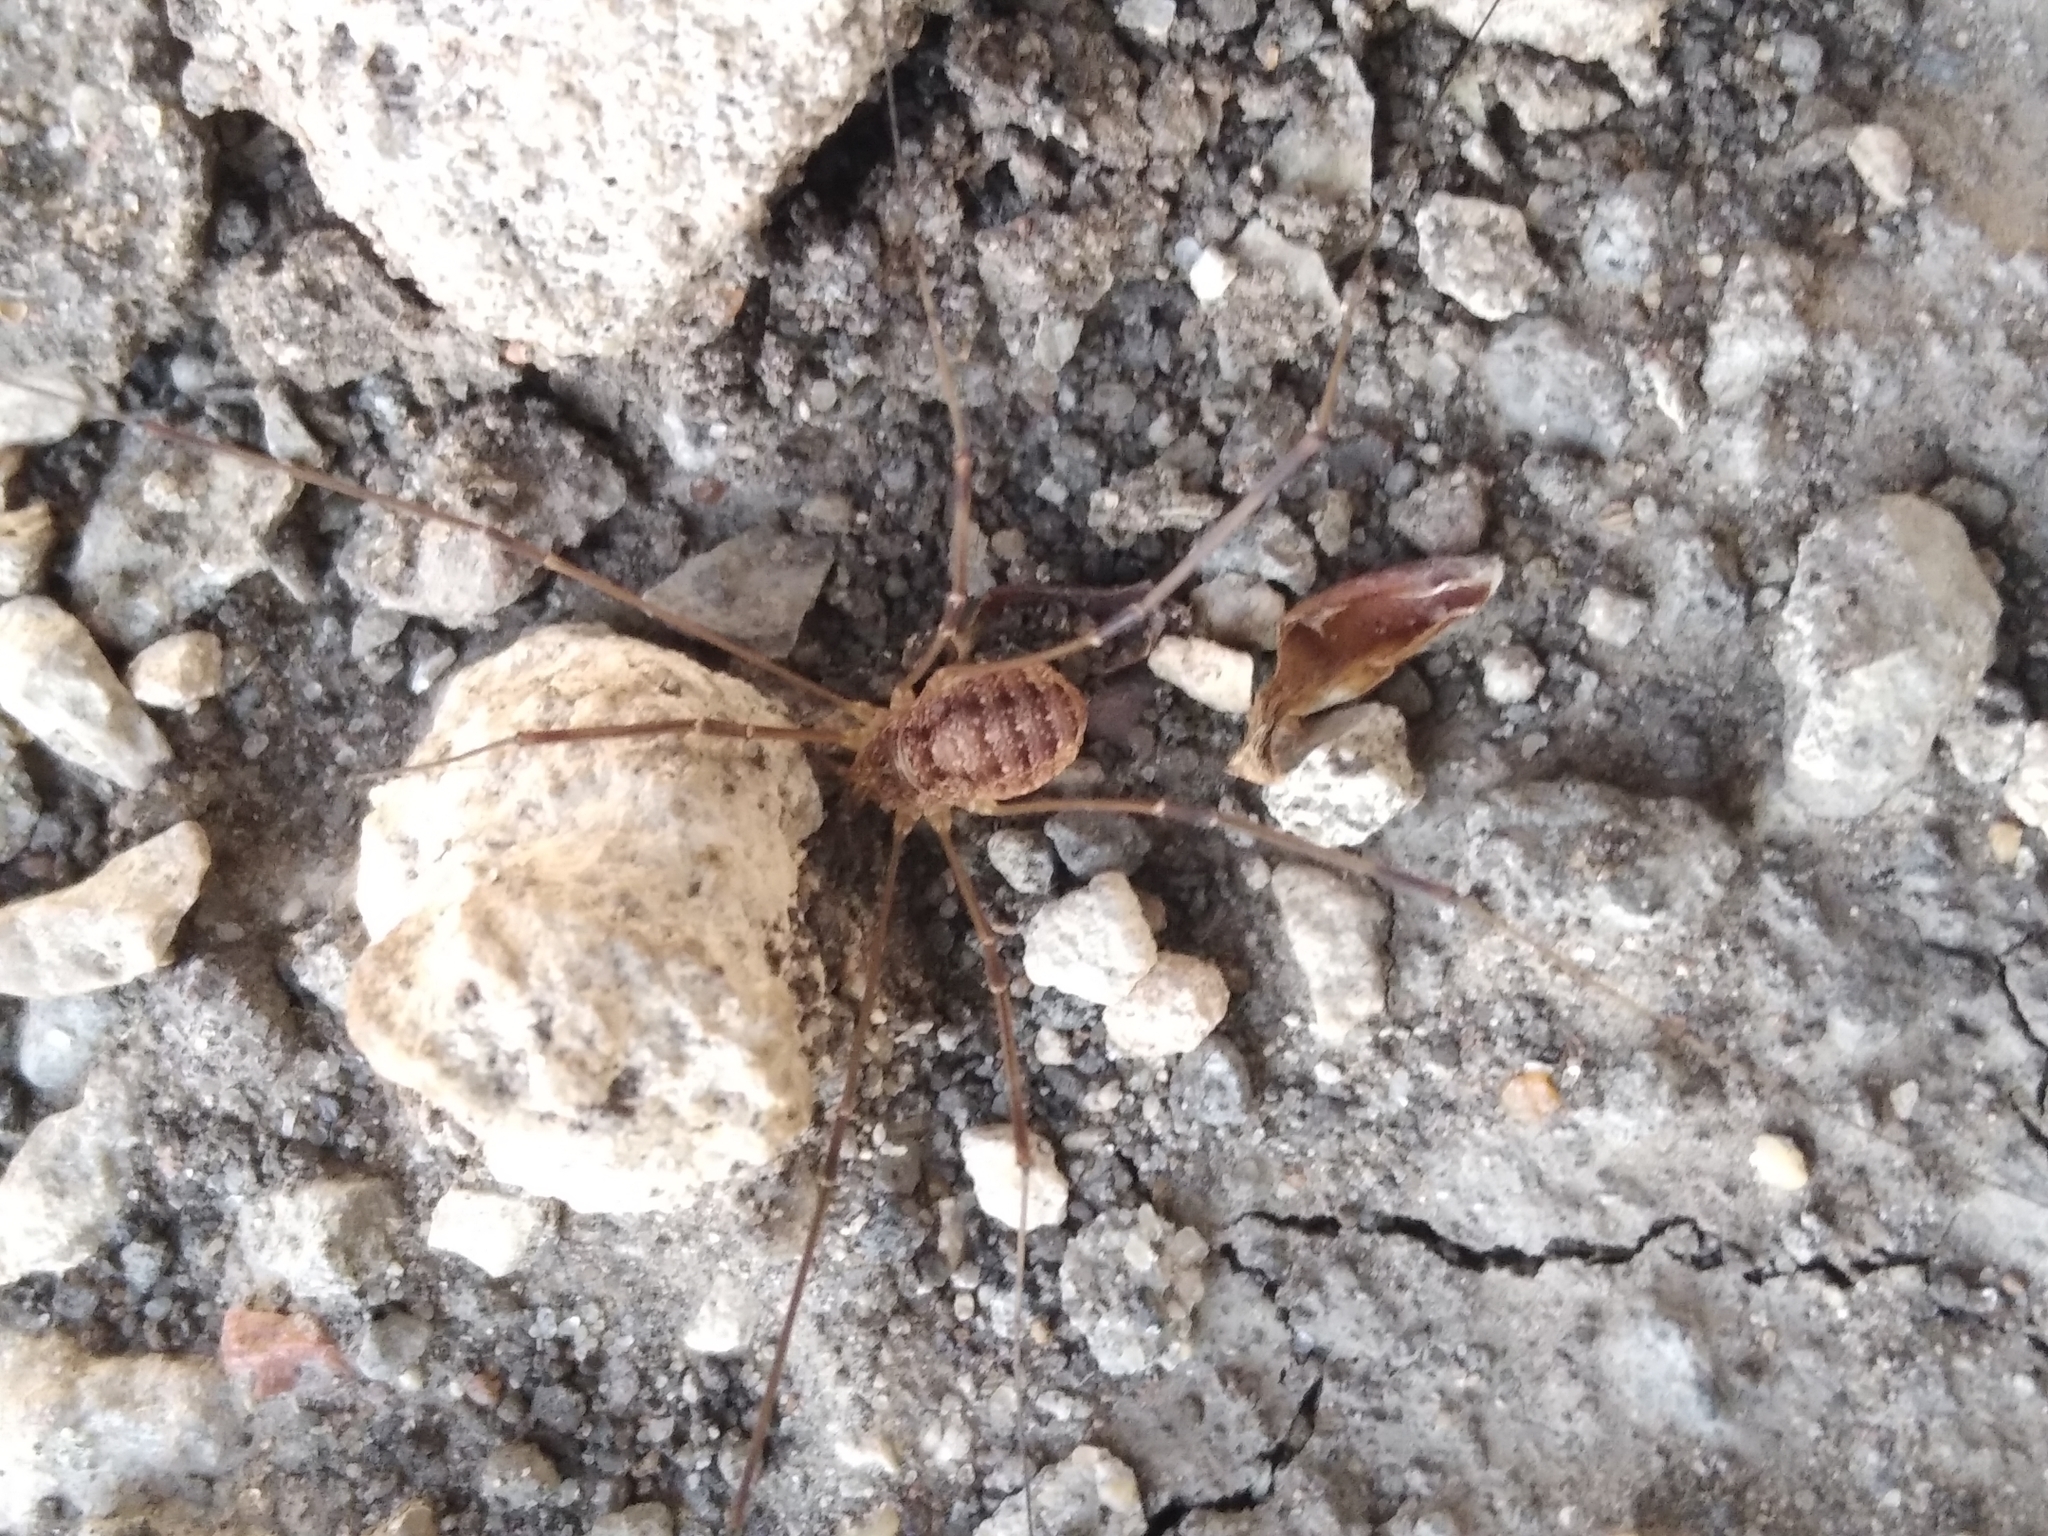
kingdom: Animalia
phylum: Arthropoda
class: Arachnida
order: Opiliones
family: Phalangiidae
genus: Opilio
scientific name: Opilio parietinus
